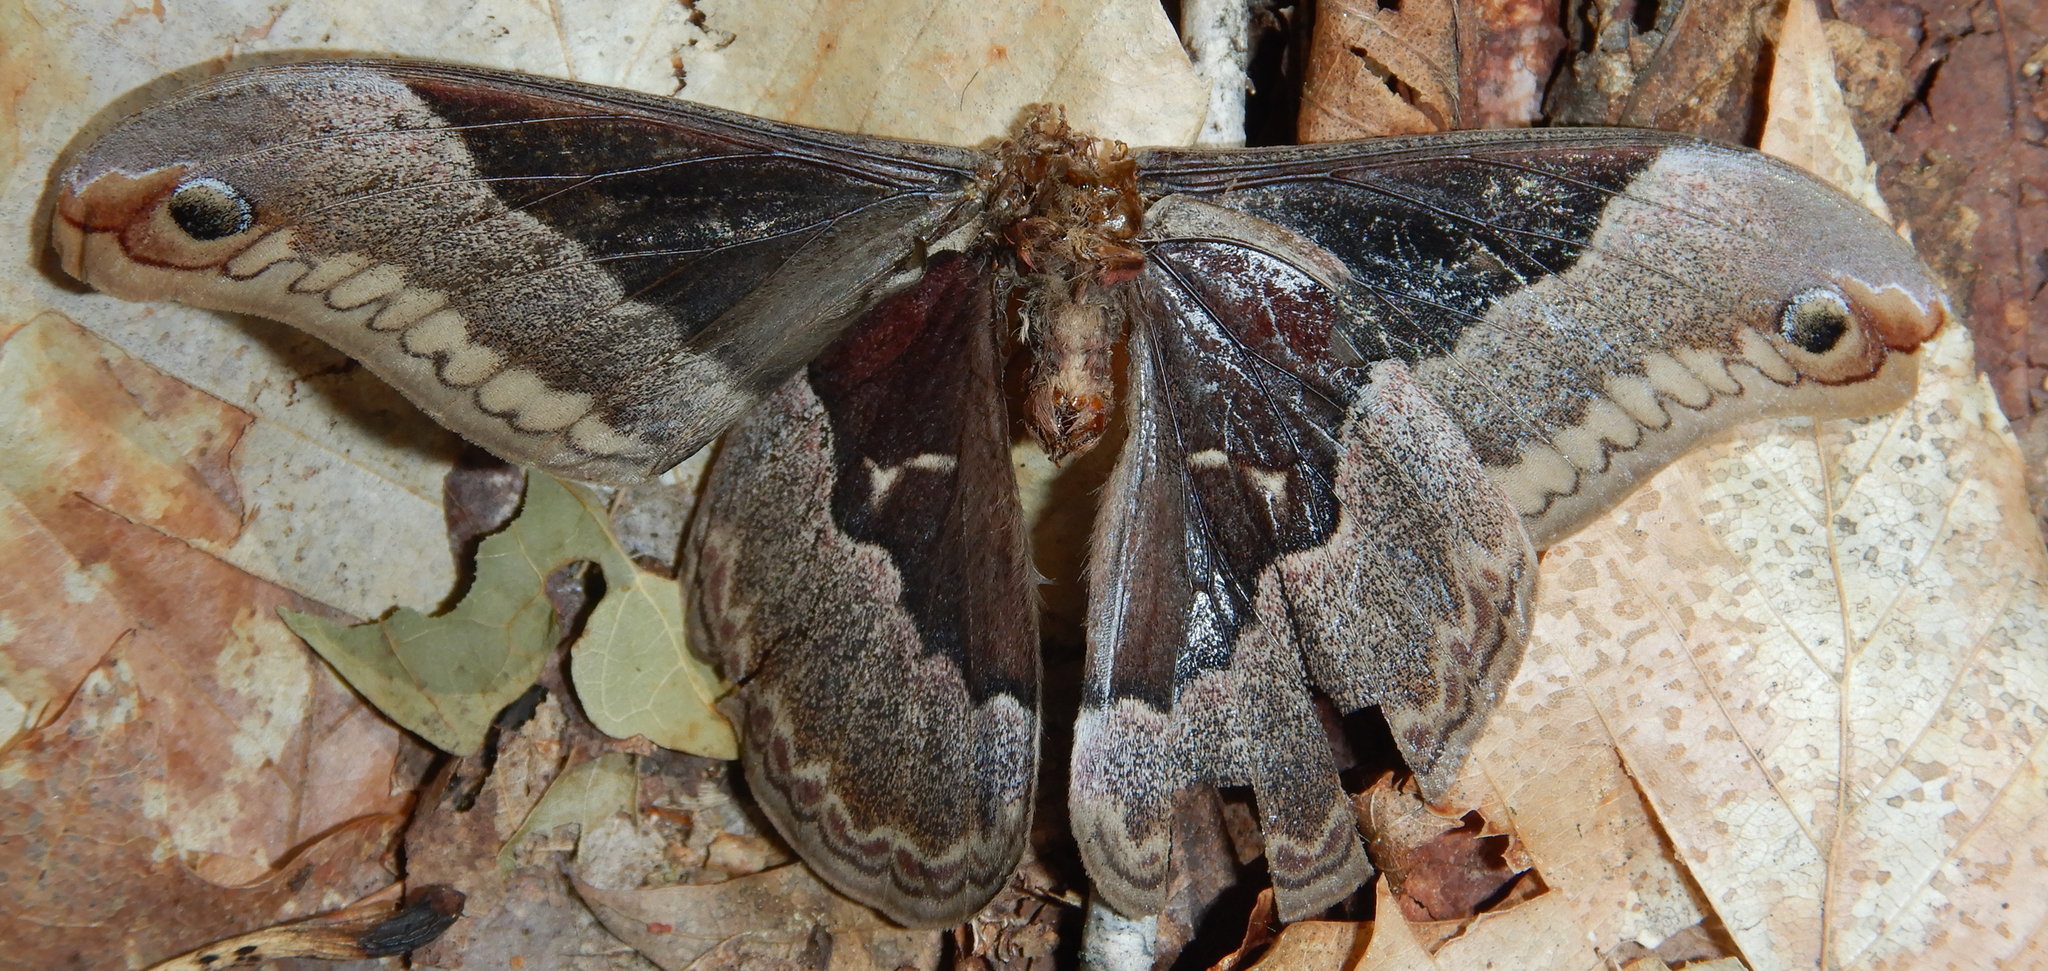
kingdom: Animalia
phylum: Arthropoda
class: Insecta
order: Lepidoptera
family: Saturniidae
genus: Callosamia
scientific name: Callosamia promethea
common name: Promethea silkmoth
